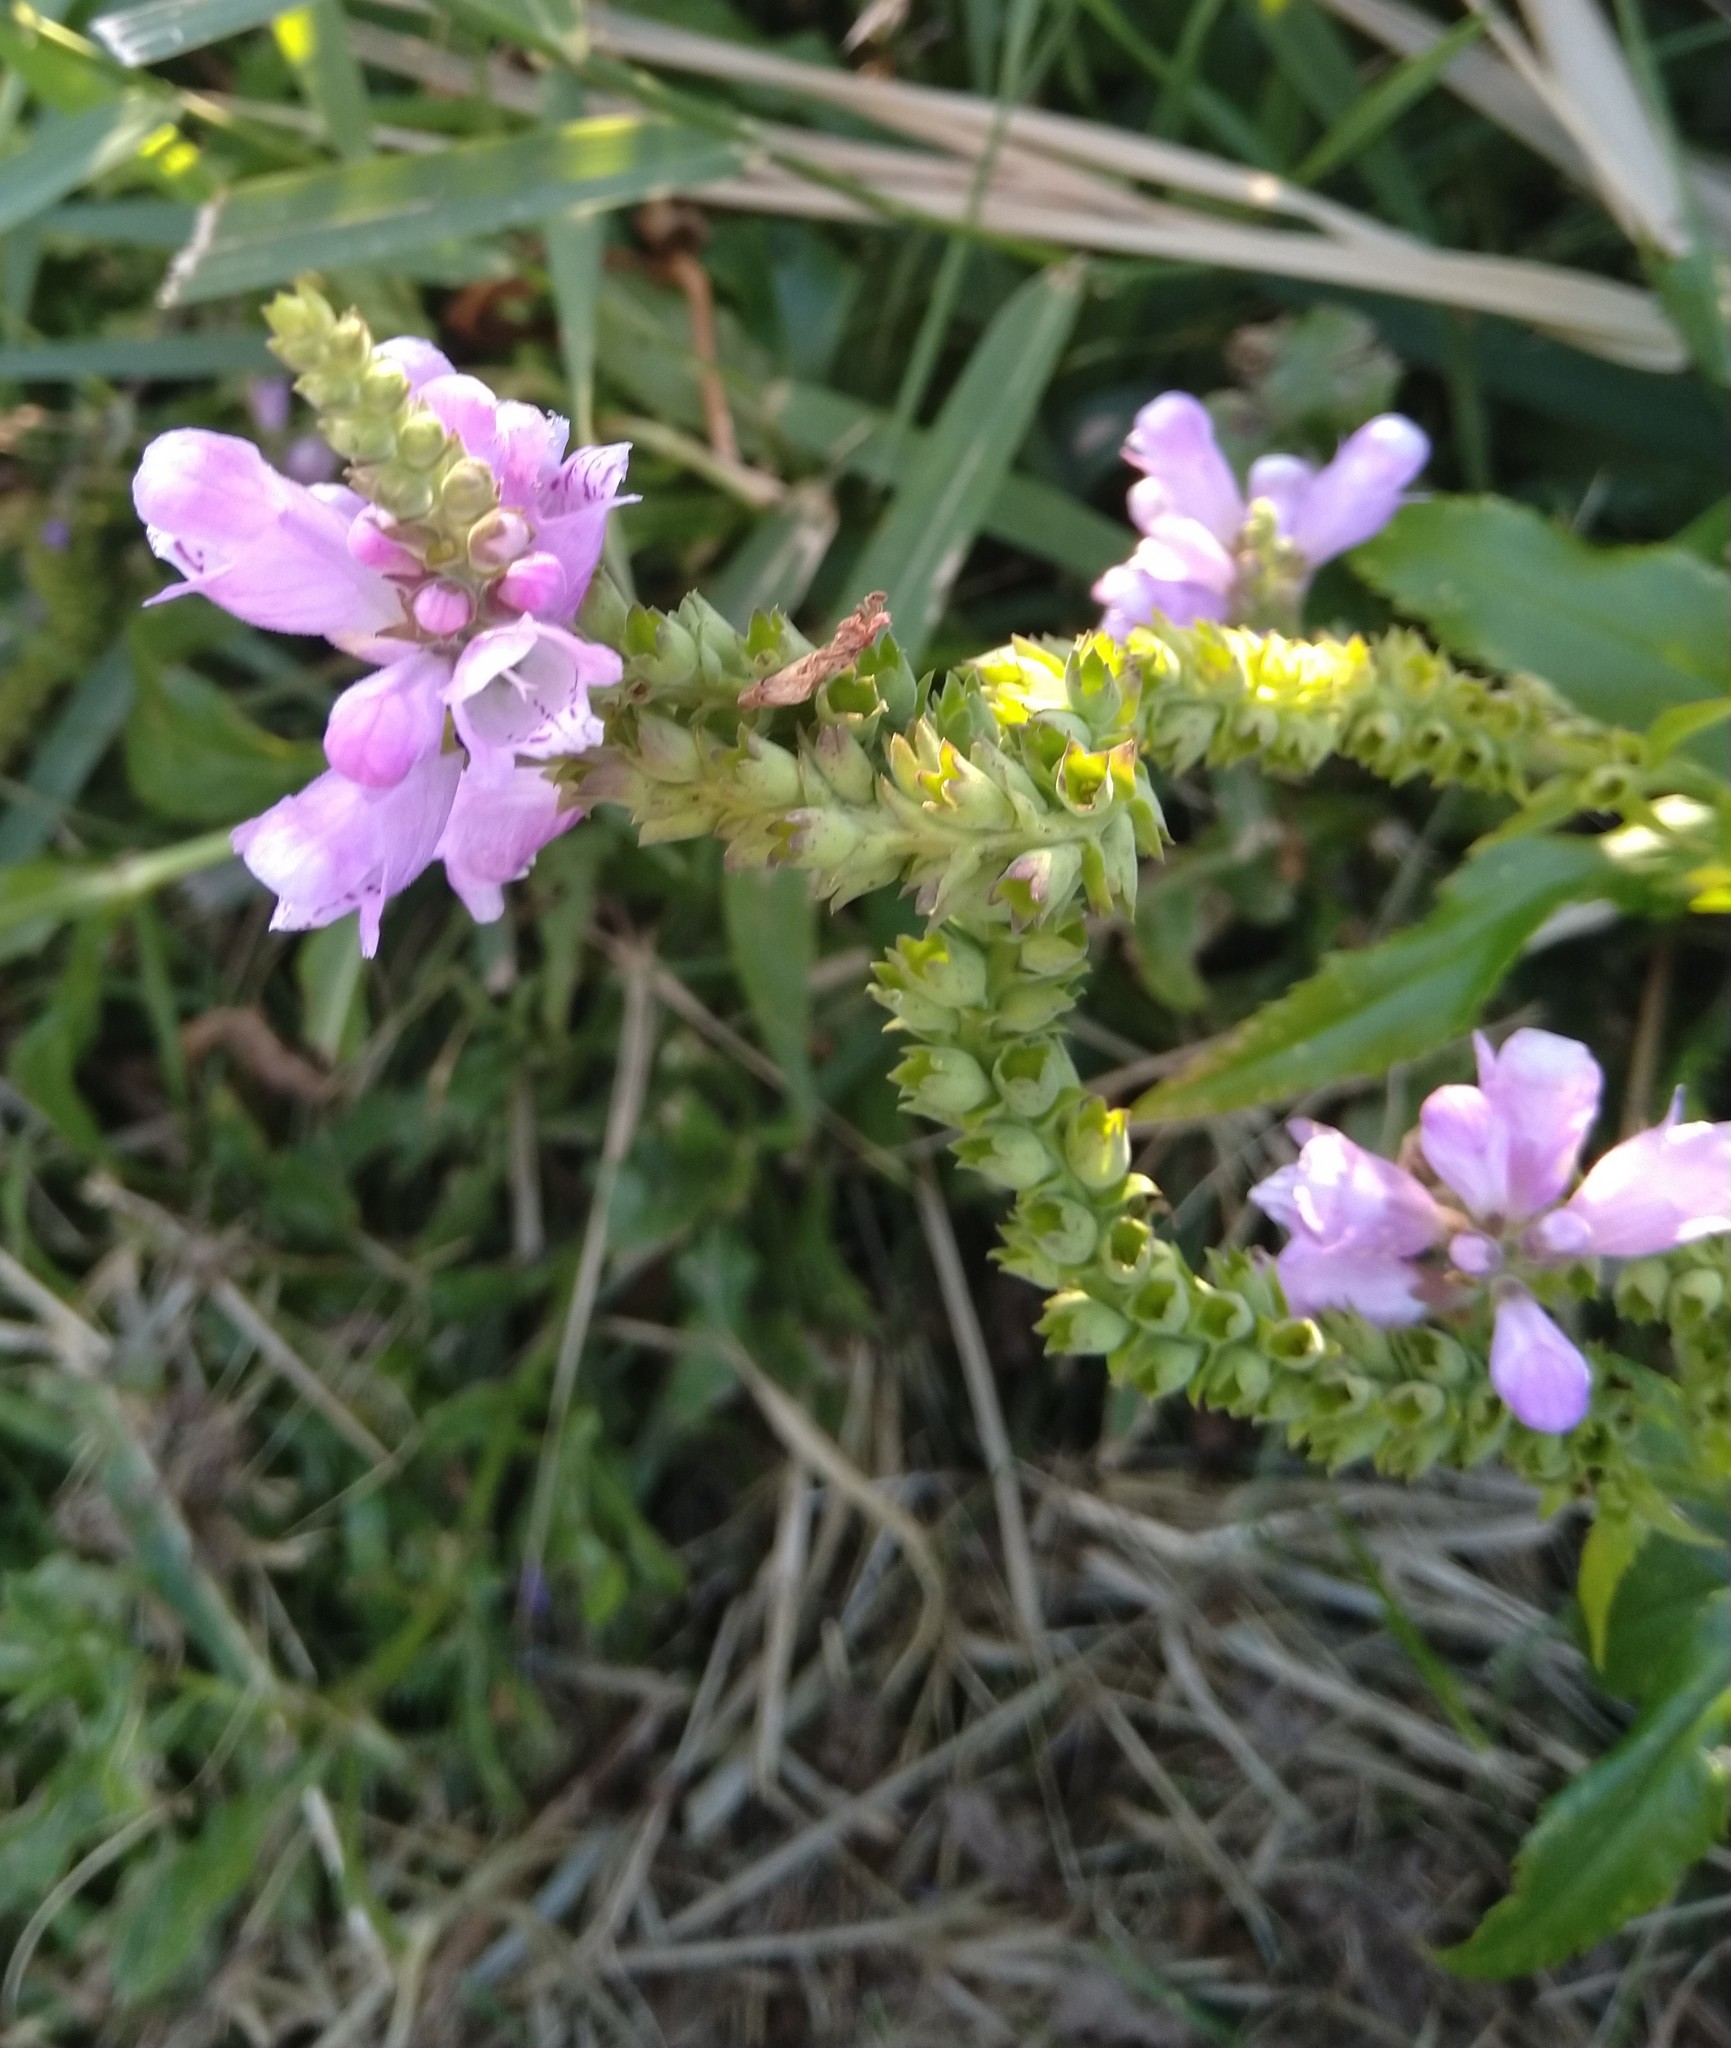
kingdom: Plantae
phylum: Tracheophyta
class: Magnoliopsida
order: Lamiales
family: Lamiaceae
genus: Physostegia
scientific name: Physostegia virginiana
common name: Obedient-plant
